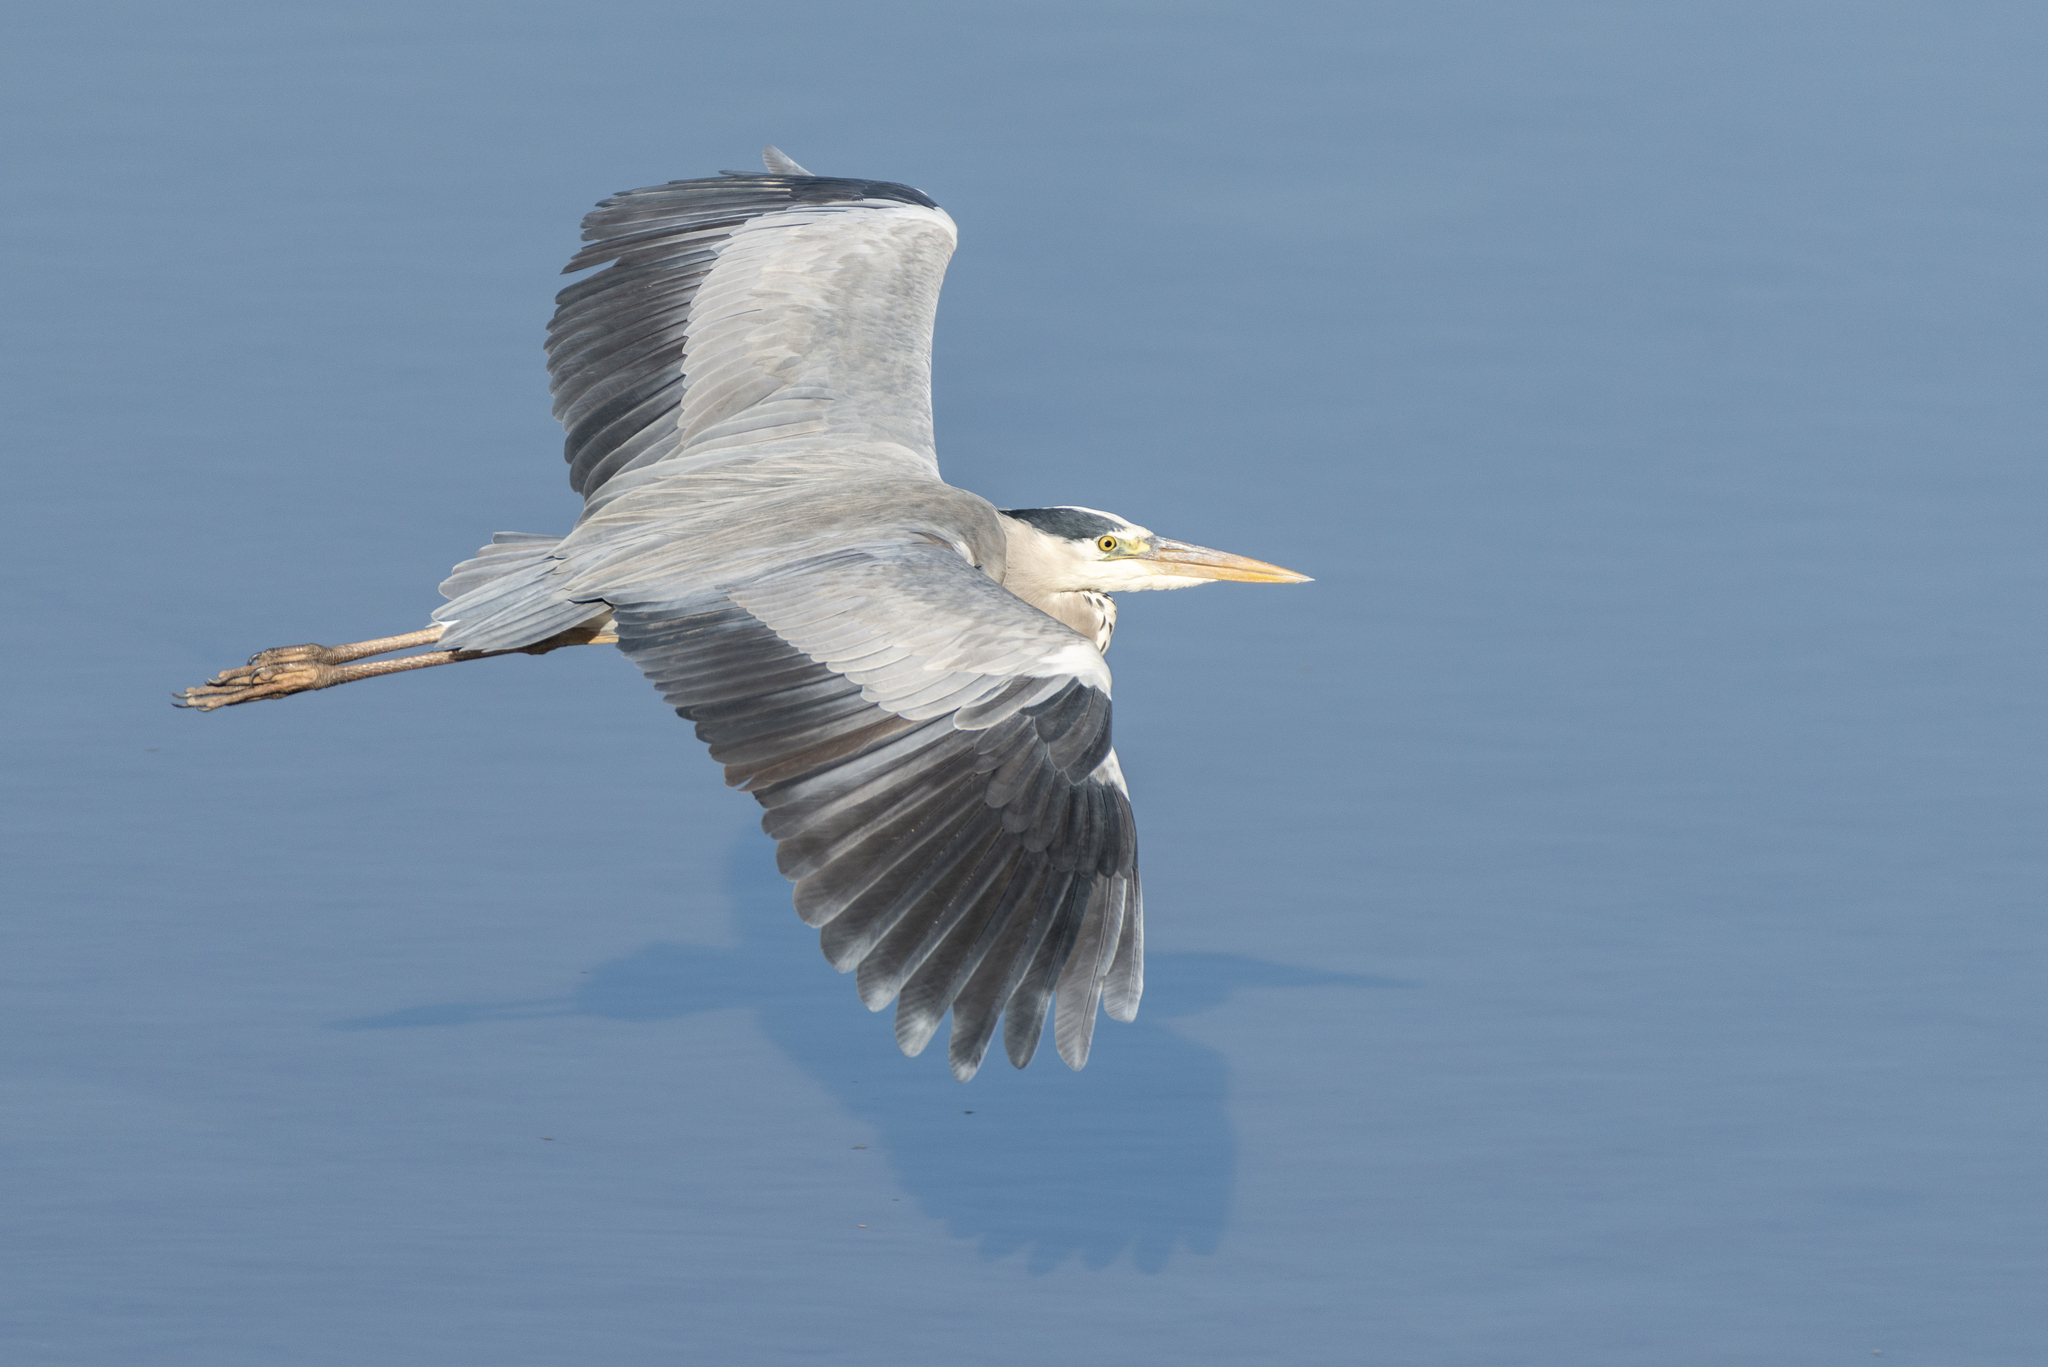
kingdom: Animalia
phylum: Chordata
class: Aves
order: Pelecaniformes
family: Ardeidae
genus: Ardea
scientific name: Ardea cinerea
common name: Grey heron
